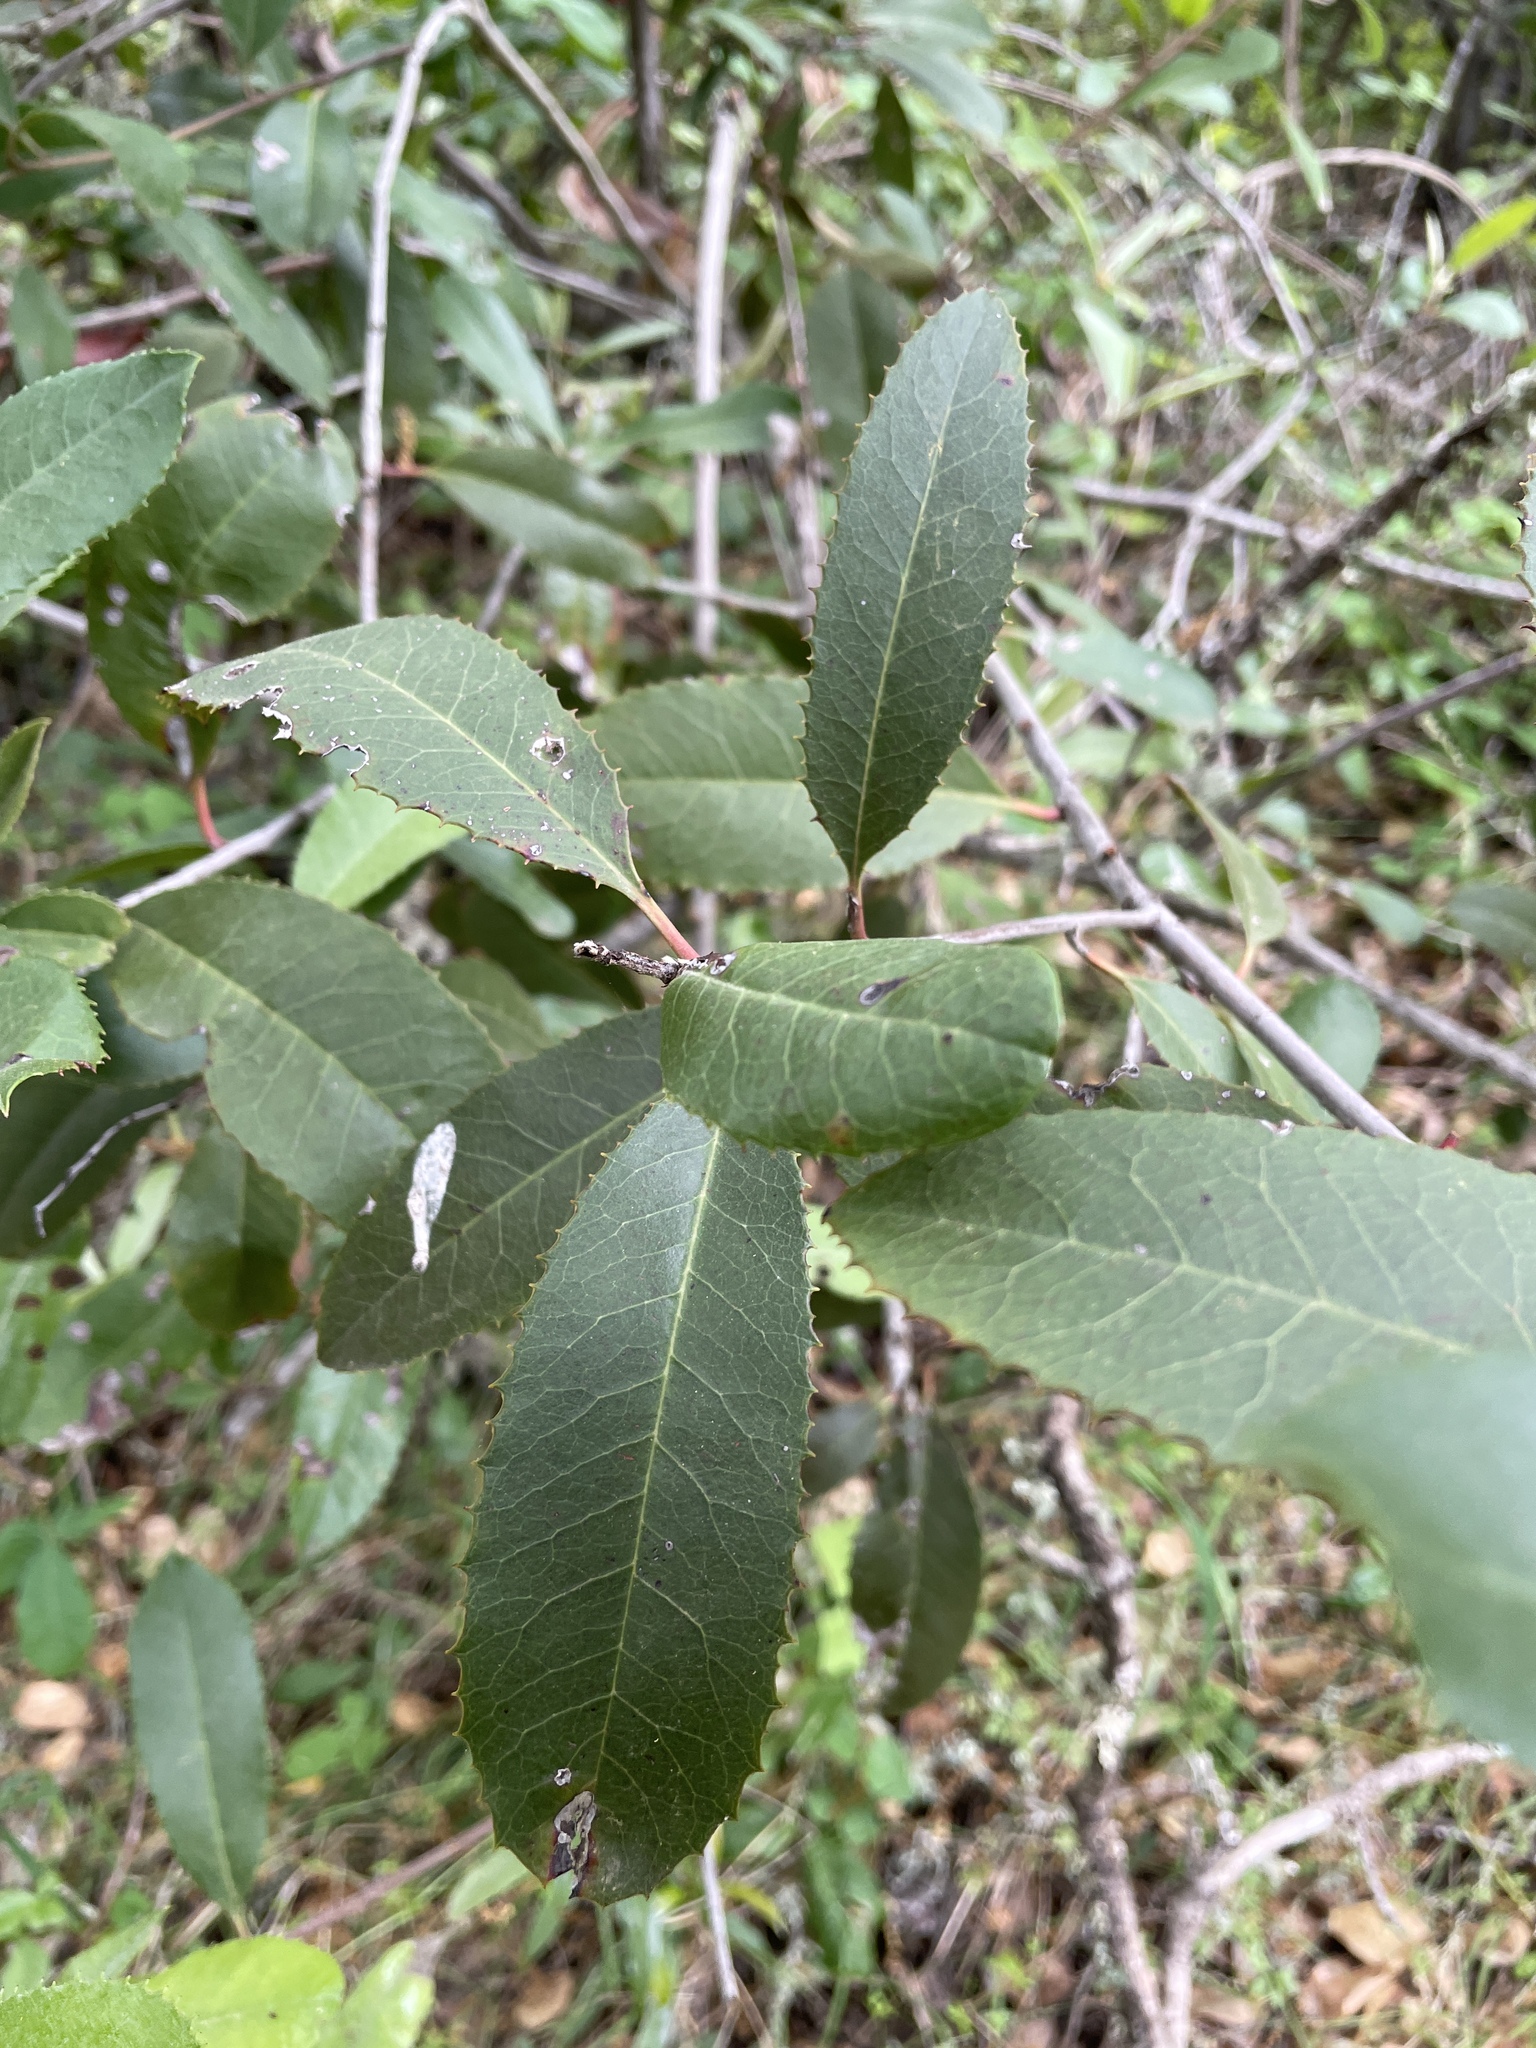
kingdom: Plantae
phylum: Tracheophyta
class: Magnoliopsida
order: Rosales
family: Rosaceae
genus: Heteromeles
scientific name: Heteromeles arbutifolia
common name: California-holly
